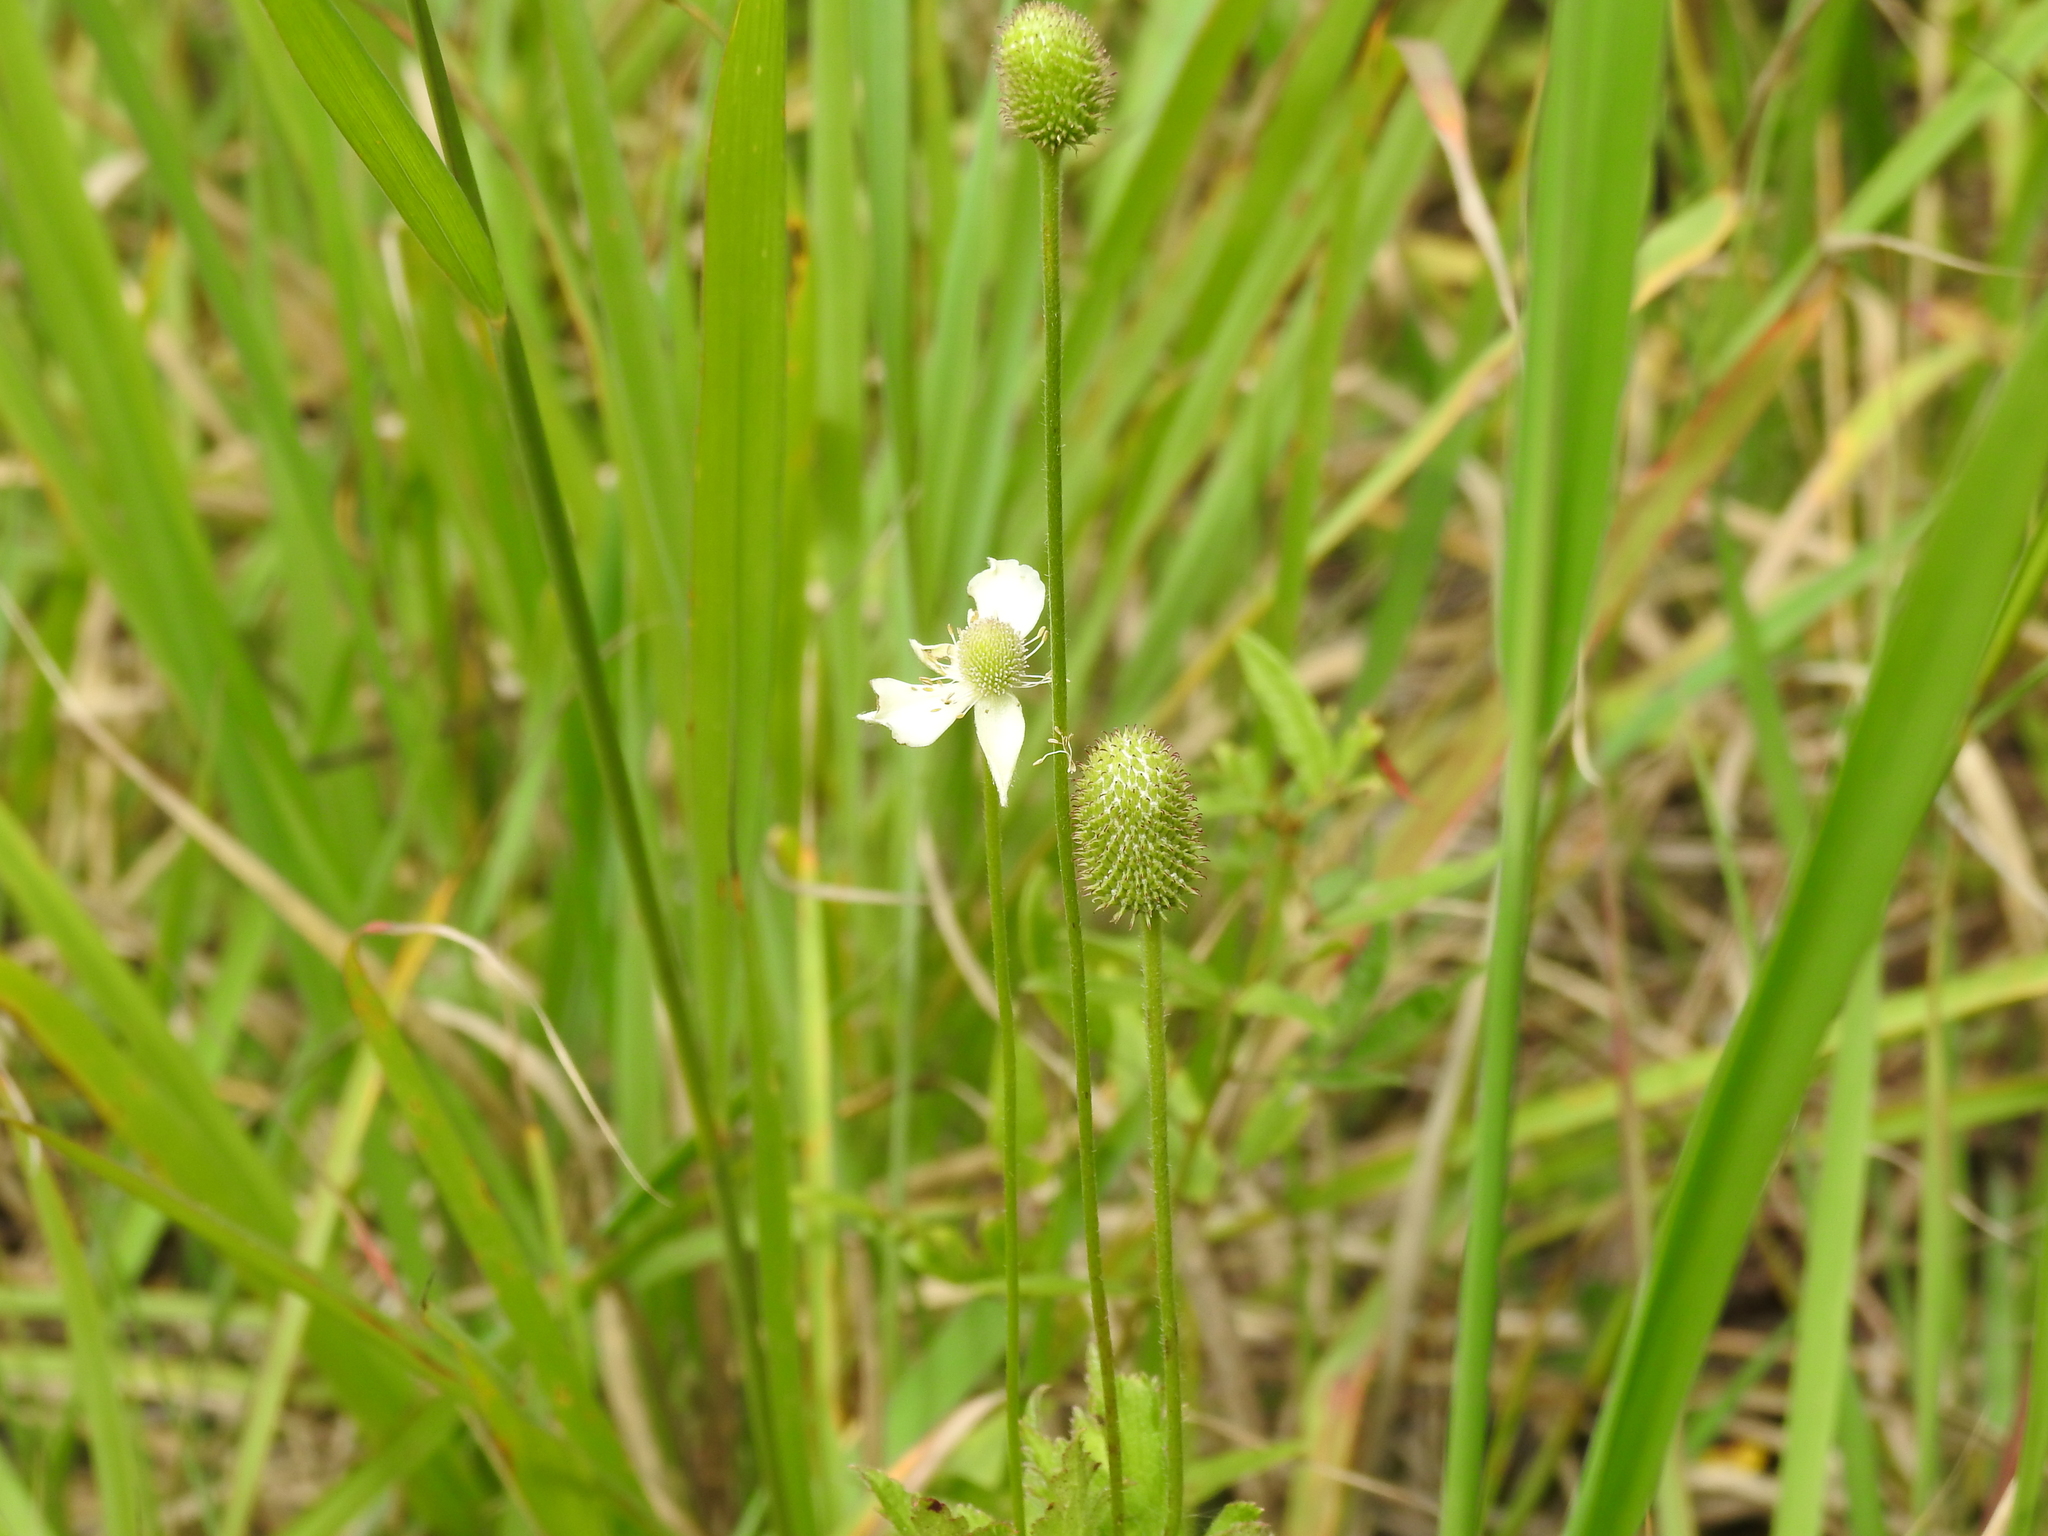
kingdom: Plantae
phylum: Tracheophyta
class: Magnoliopsida
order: Ranunculales
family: Ranunculaceae
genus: Anemone
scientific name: Anemone virginiana
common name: Tall anemone
